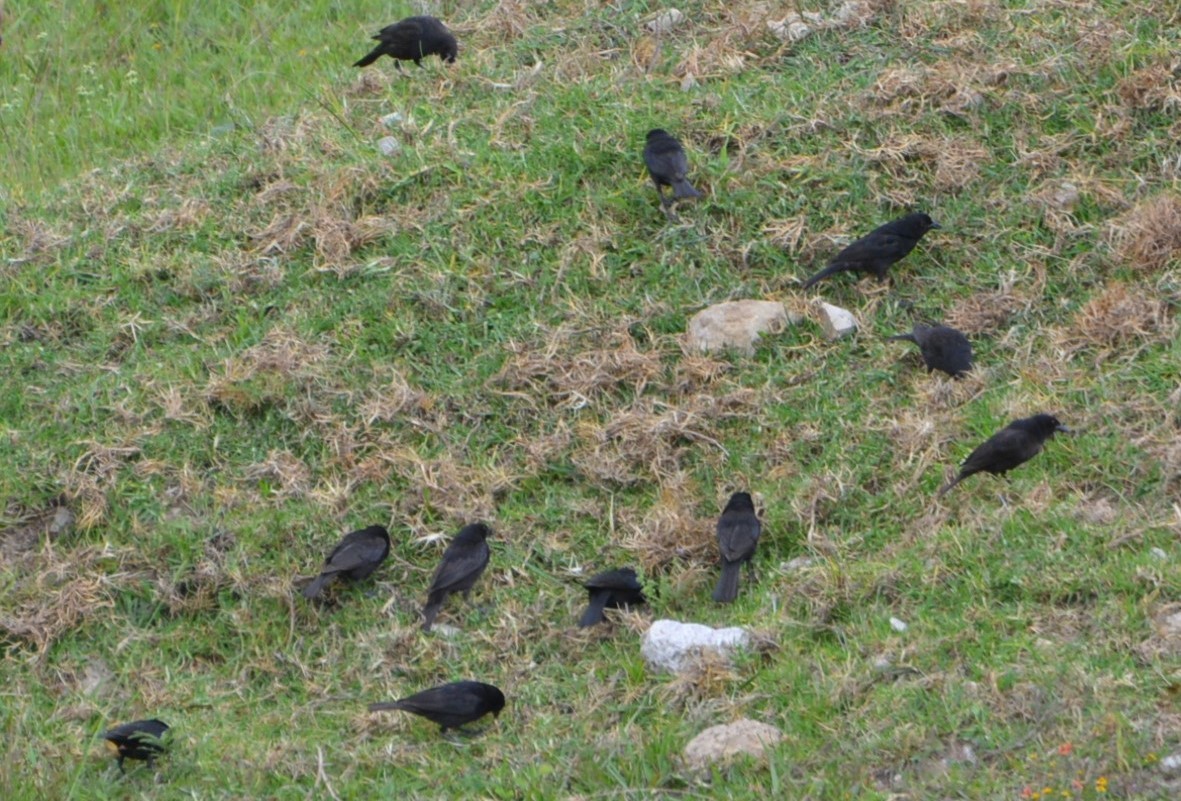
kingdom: Animalia
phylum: Chordata
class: Aves
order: Passeriformes
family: Icteridae
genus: Molothrus
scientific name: Molothrus aeneus
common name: Bronzed cowbird
